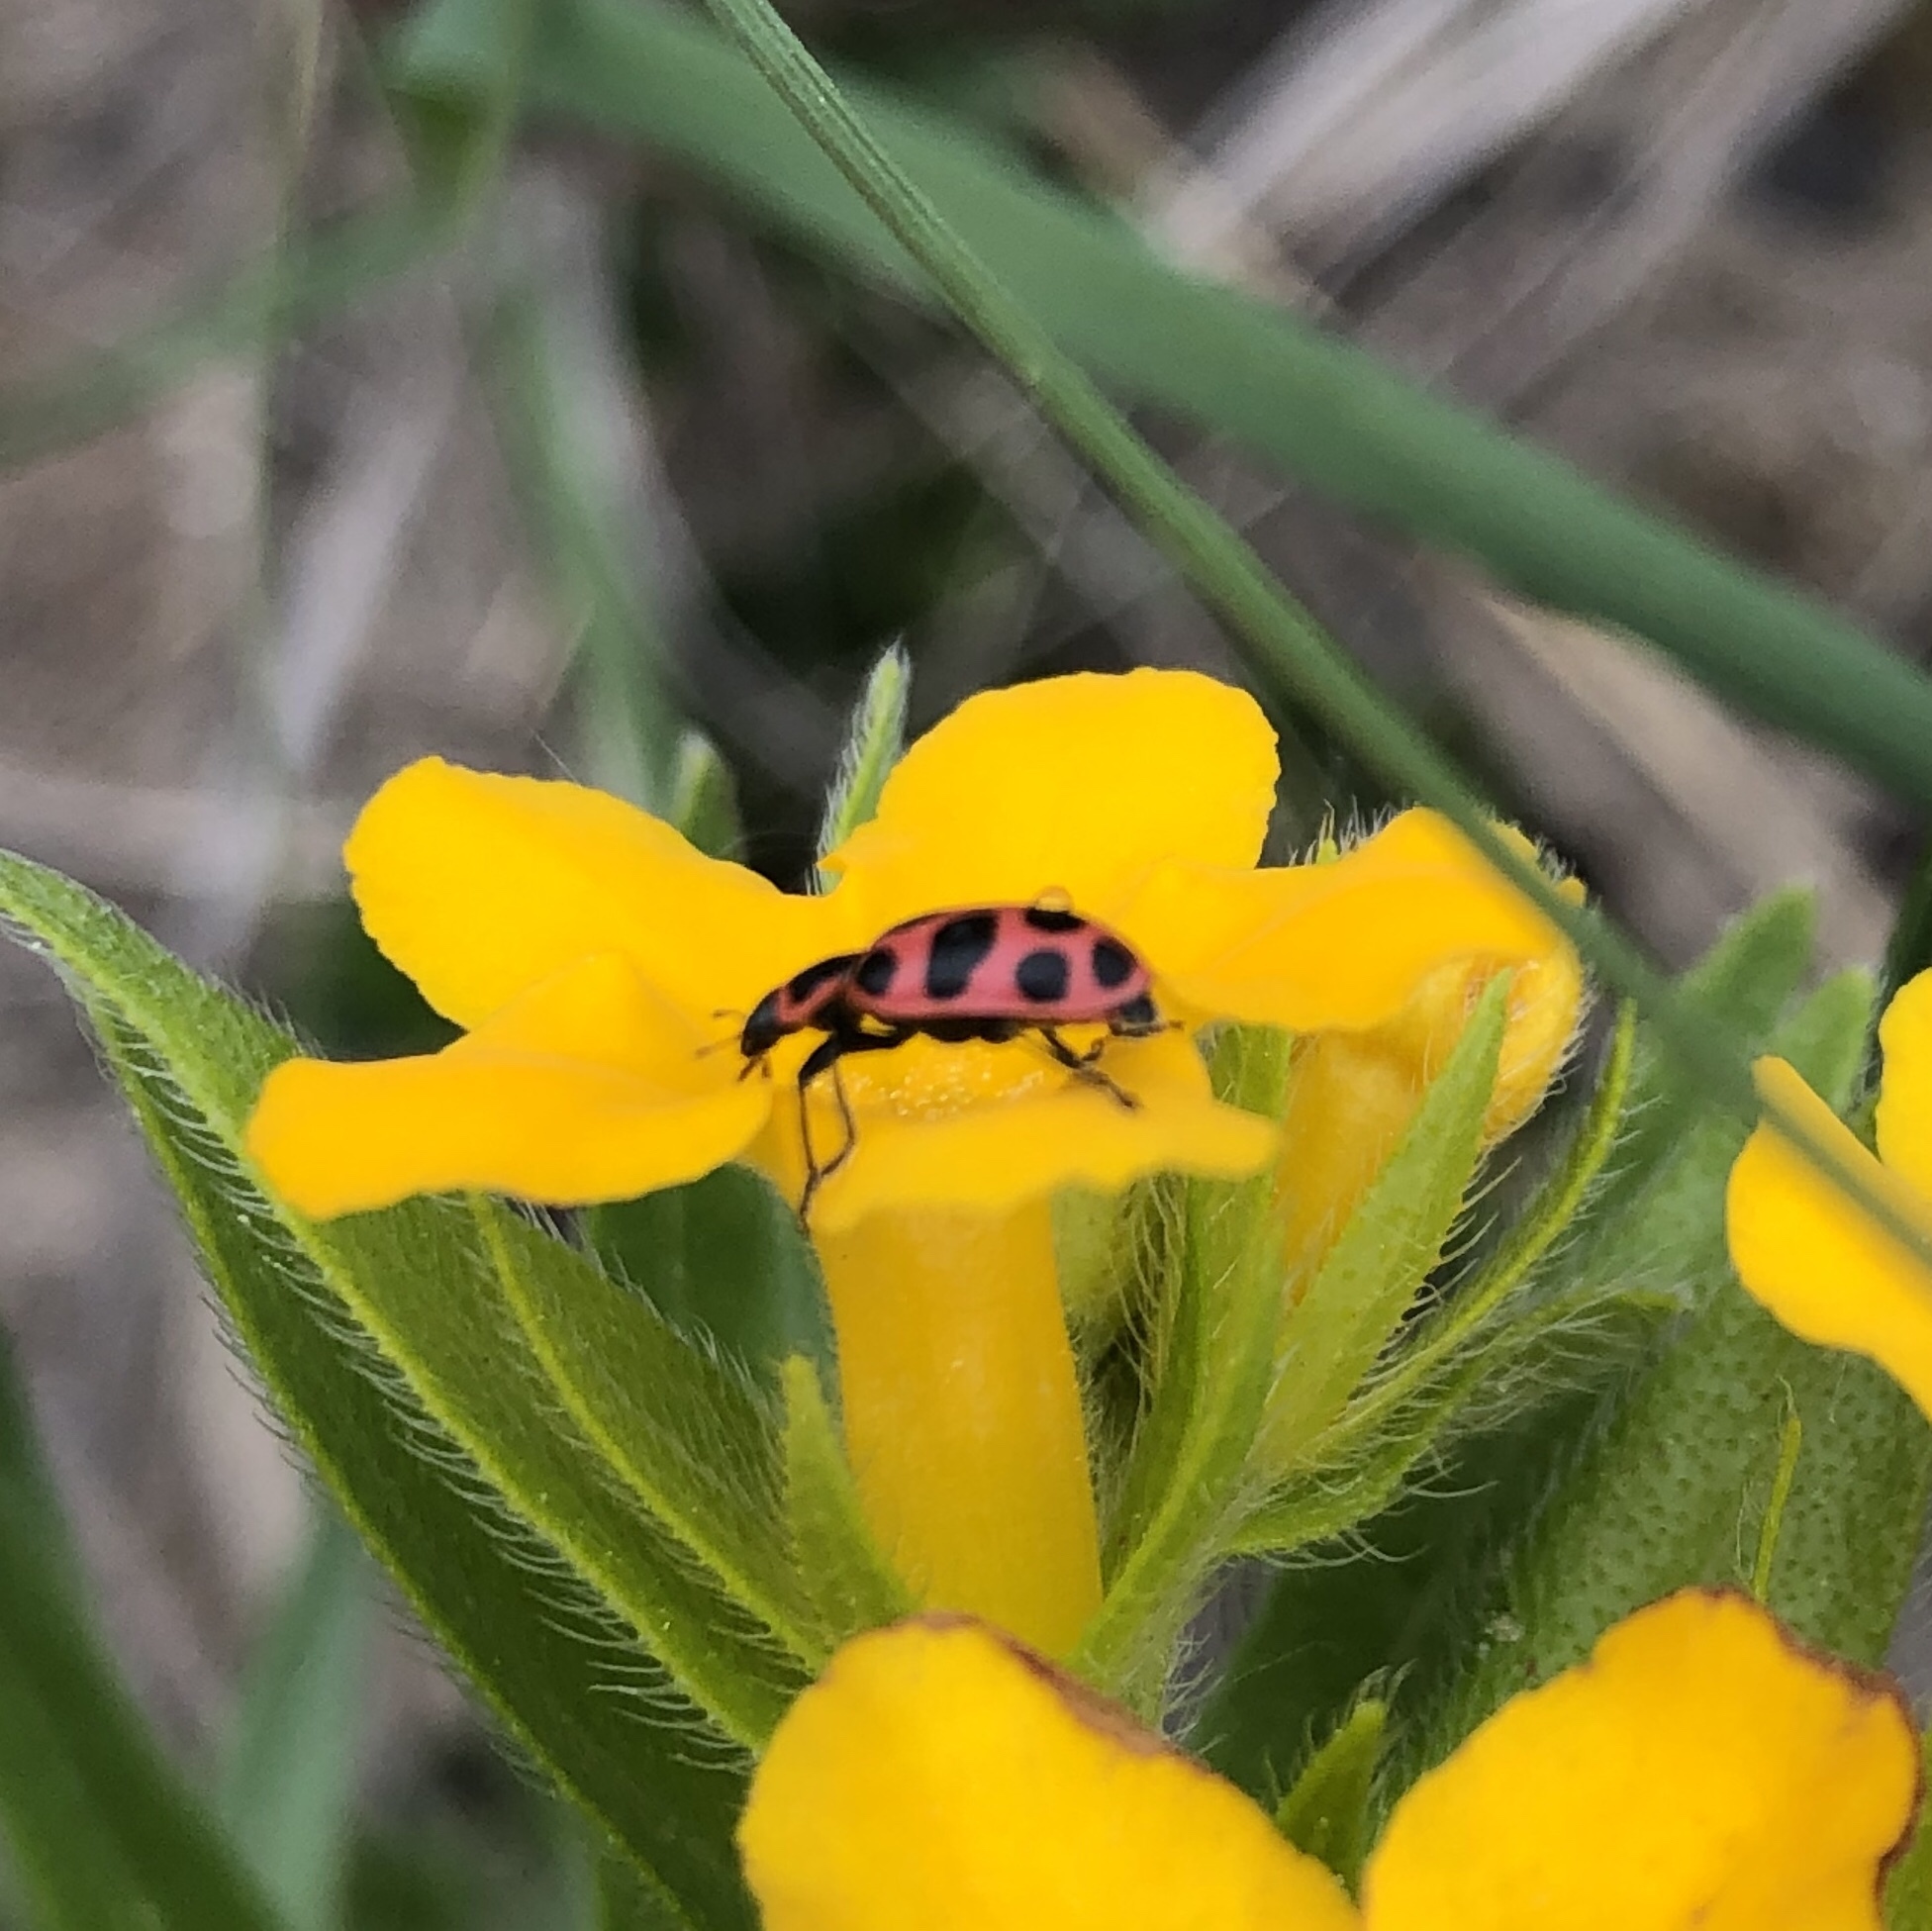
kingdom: Animalia
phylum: Arthropoda
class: Insecta
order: Coleoptera
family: Coccinellidae
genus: Coleomegilla
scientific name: Coleomegilla maculata
